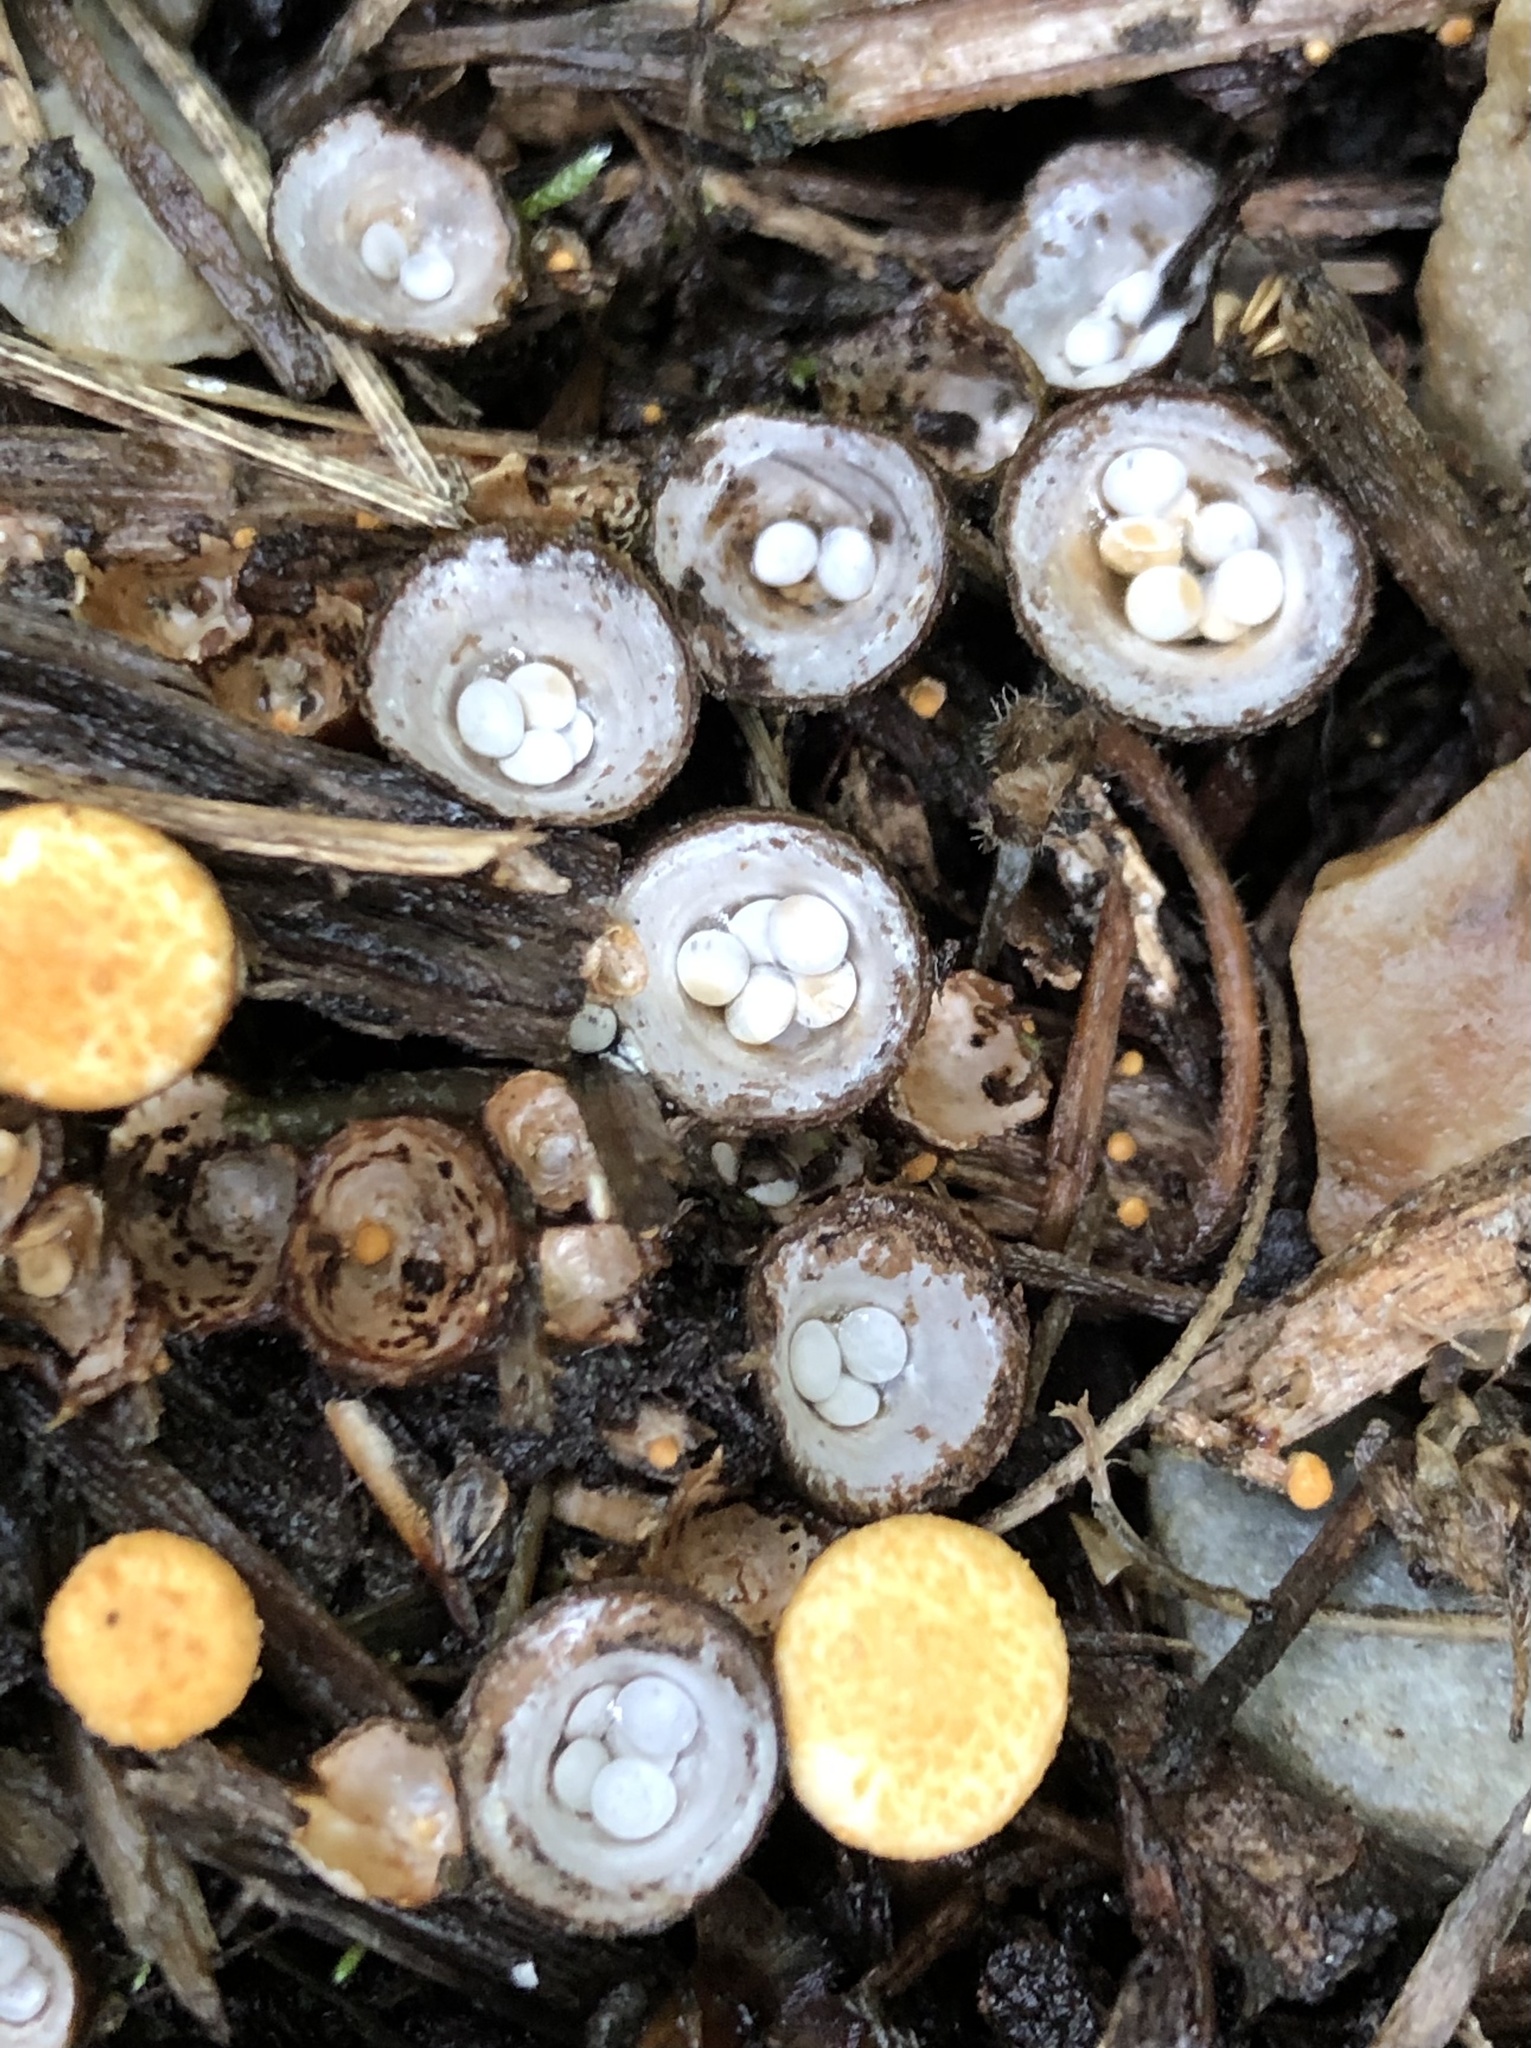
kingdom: Fungi
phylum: Basidiomycota
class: Agaricomycetes
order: Agaricales
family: Nidulariaceae
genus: Crucibulum
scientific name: Crucibulum laeve
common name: Common bird's nest
